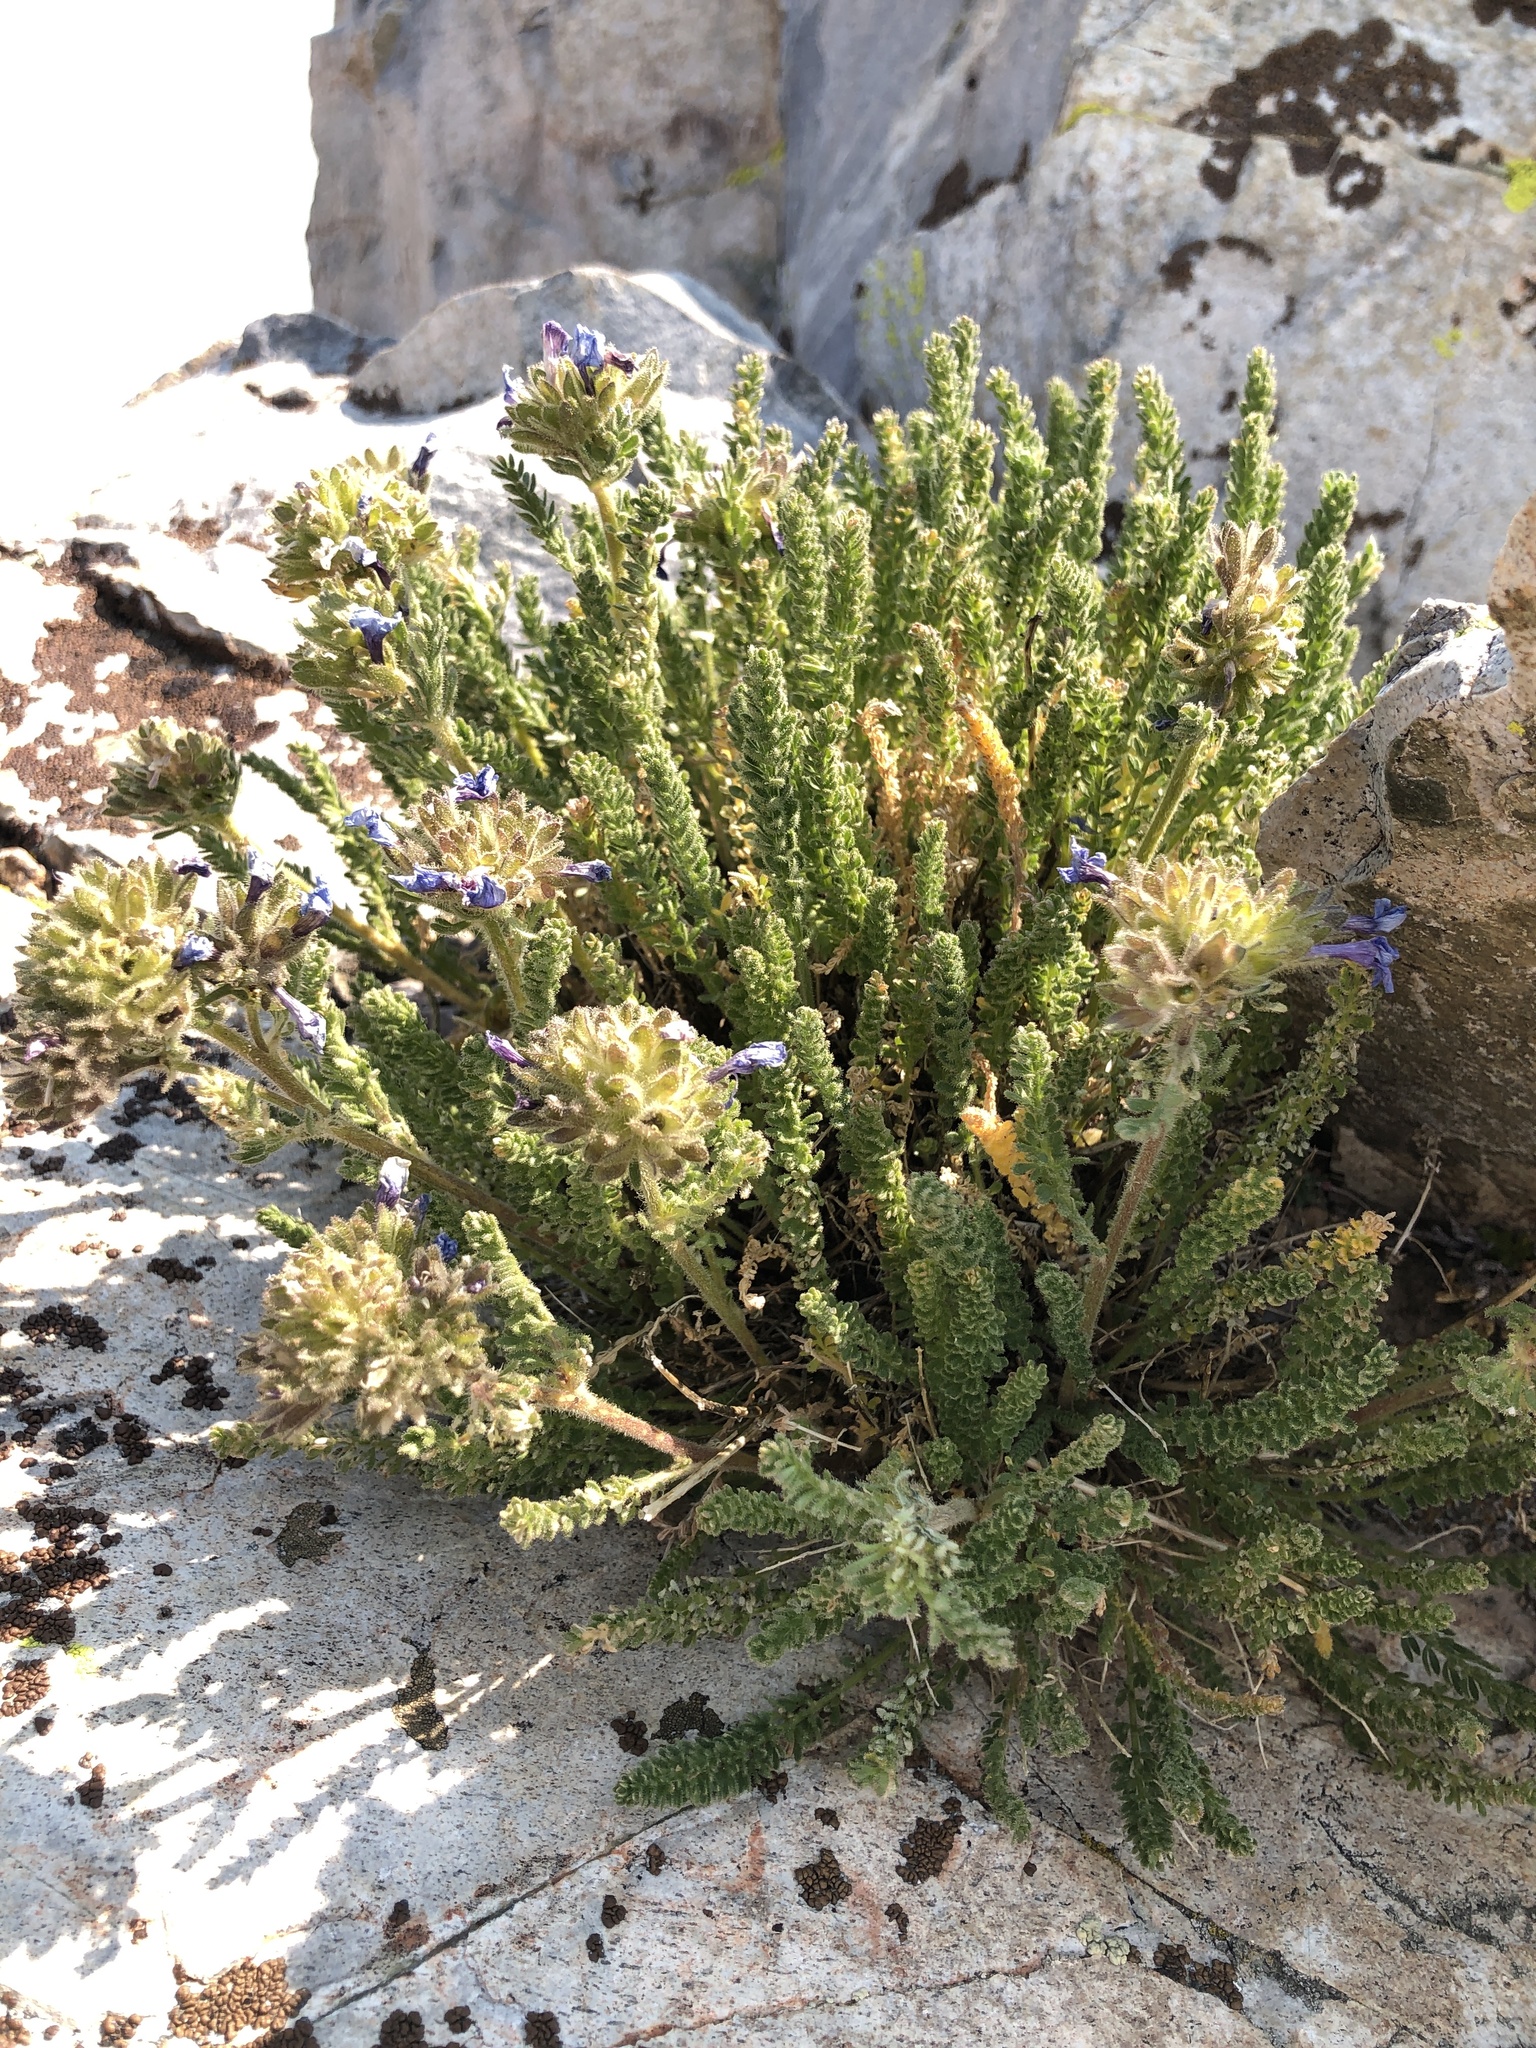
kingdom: Plantae
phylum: Tracheophyta
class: Magnoliopsida
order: Ericales
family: Polemoniaceae
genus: Polemonium
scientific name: Polemonium eximium
